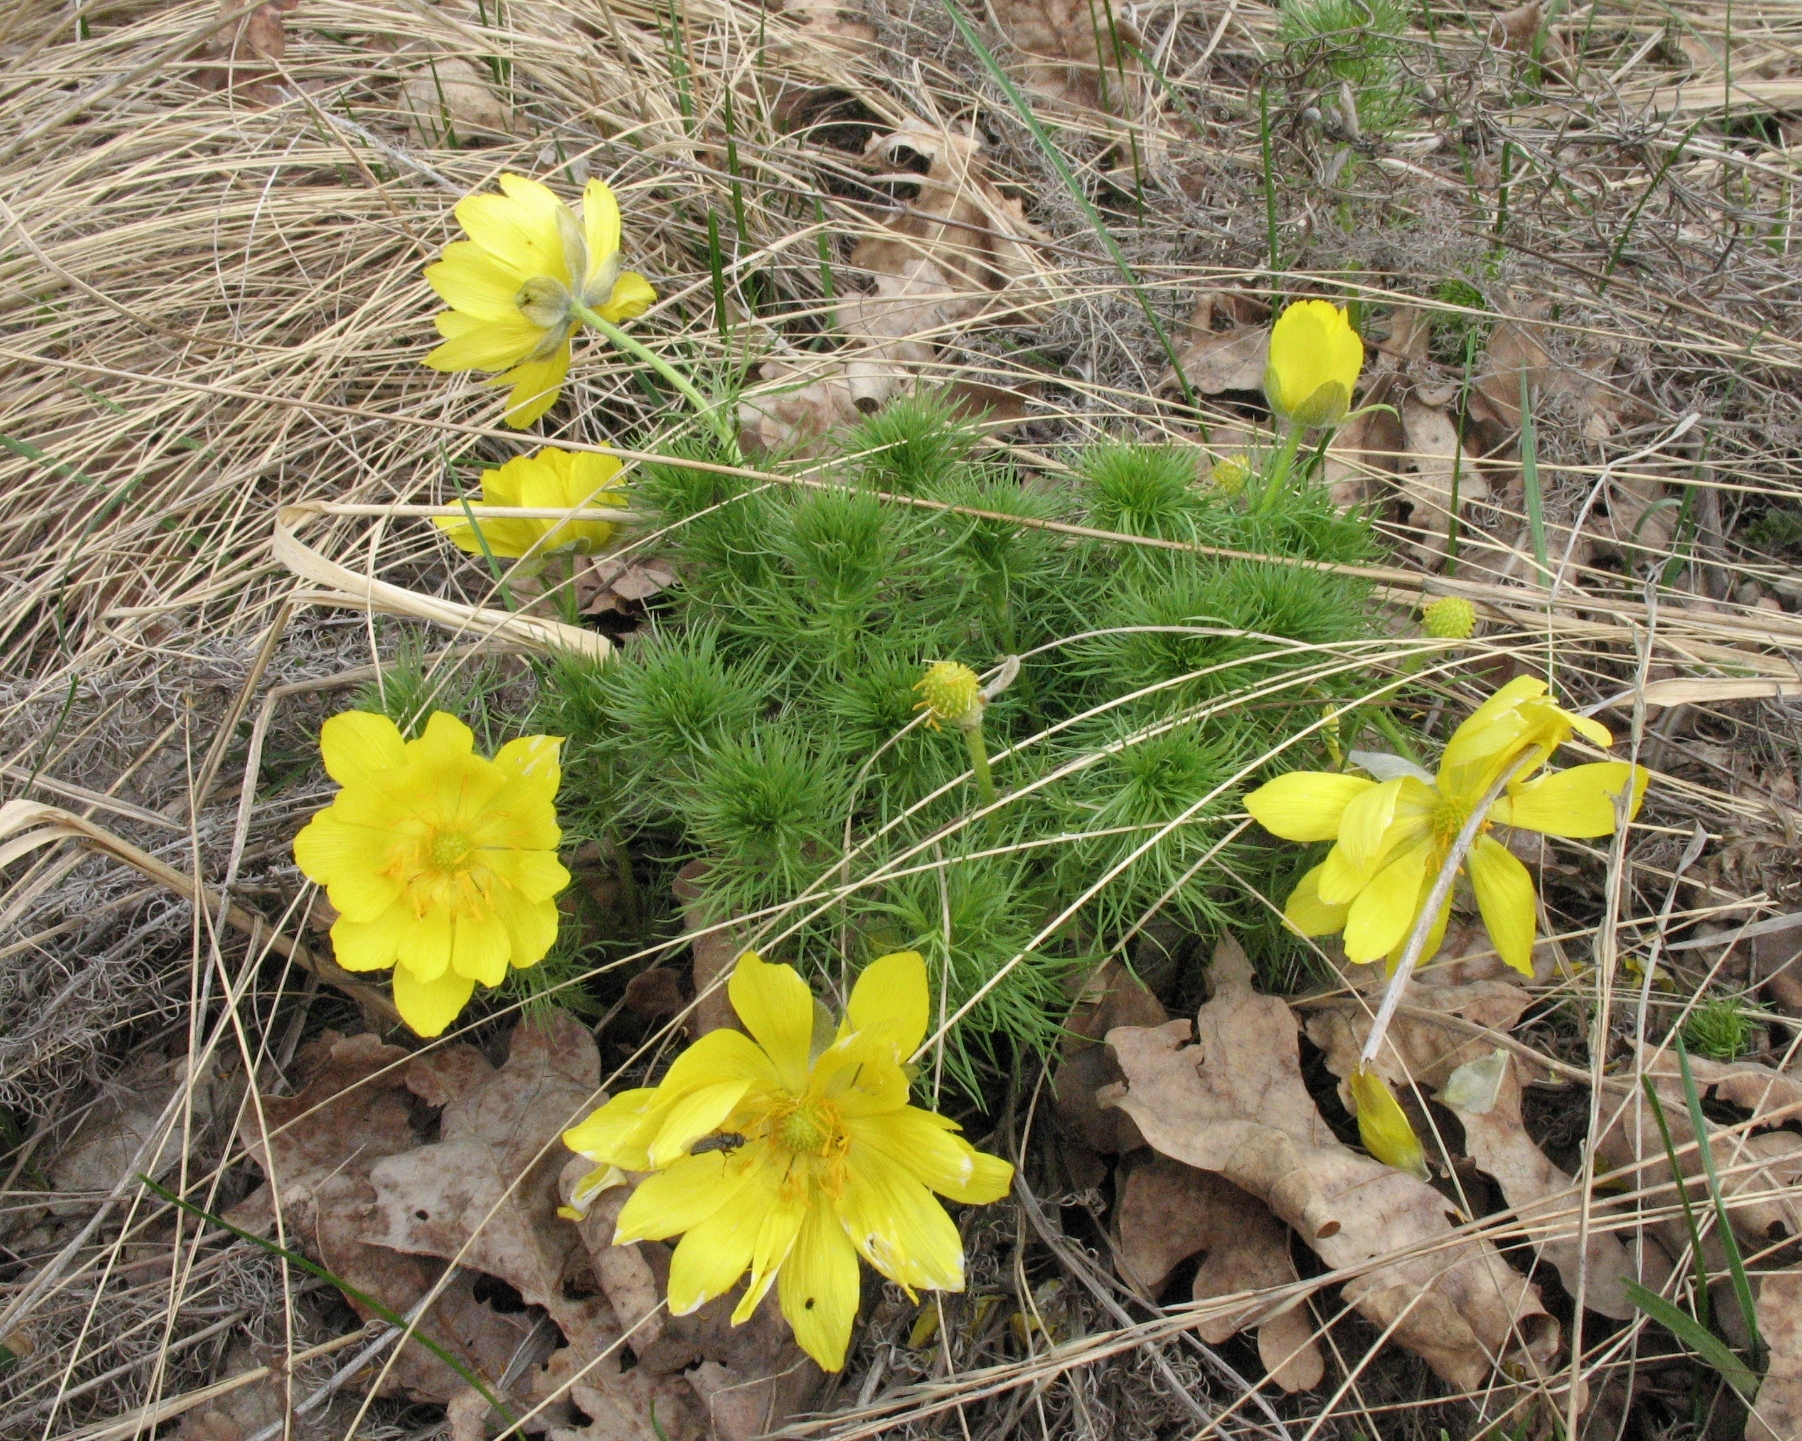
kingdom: Plantae
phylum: Tracheophyta
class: Magnoliopsida
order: Ranunculales
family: Ranunculaceae
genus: Adonis
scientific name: Adonis vernalis
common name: Yellow pheasants-eye
